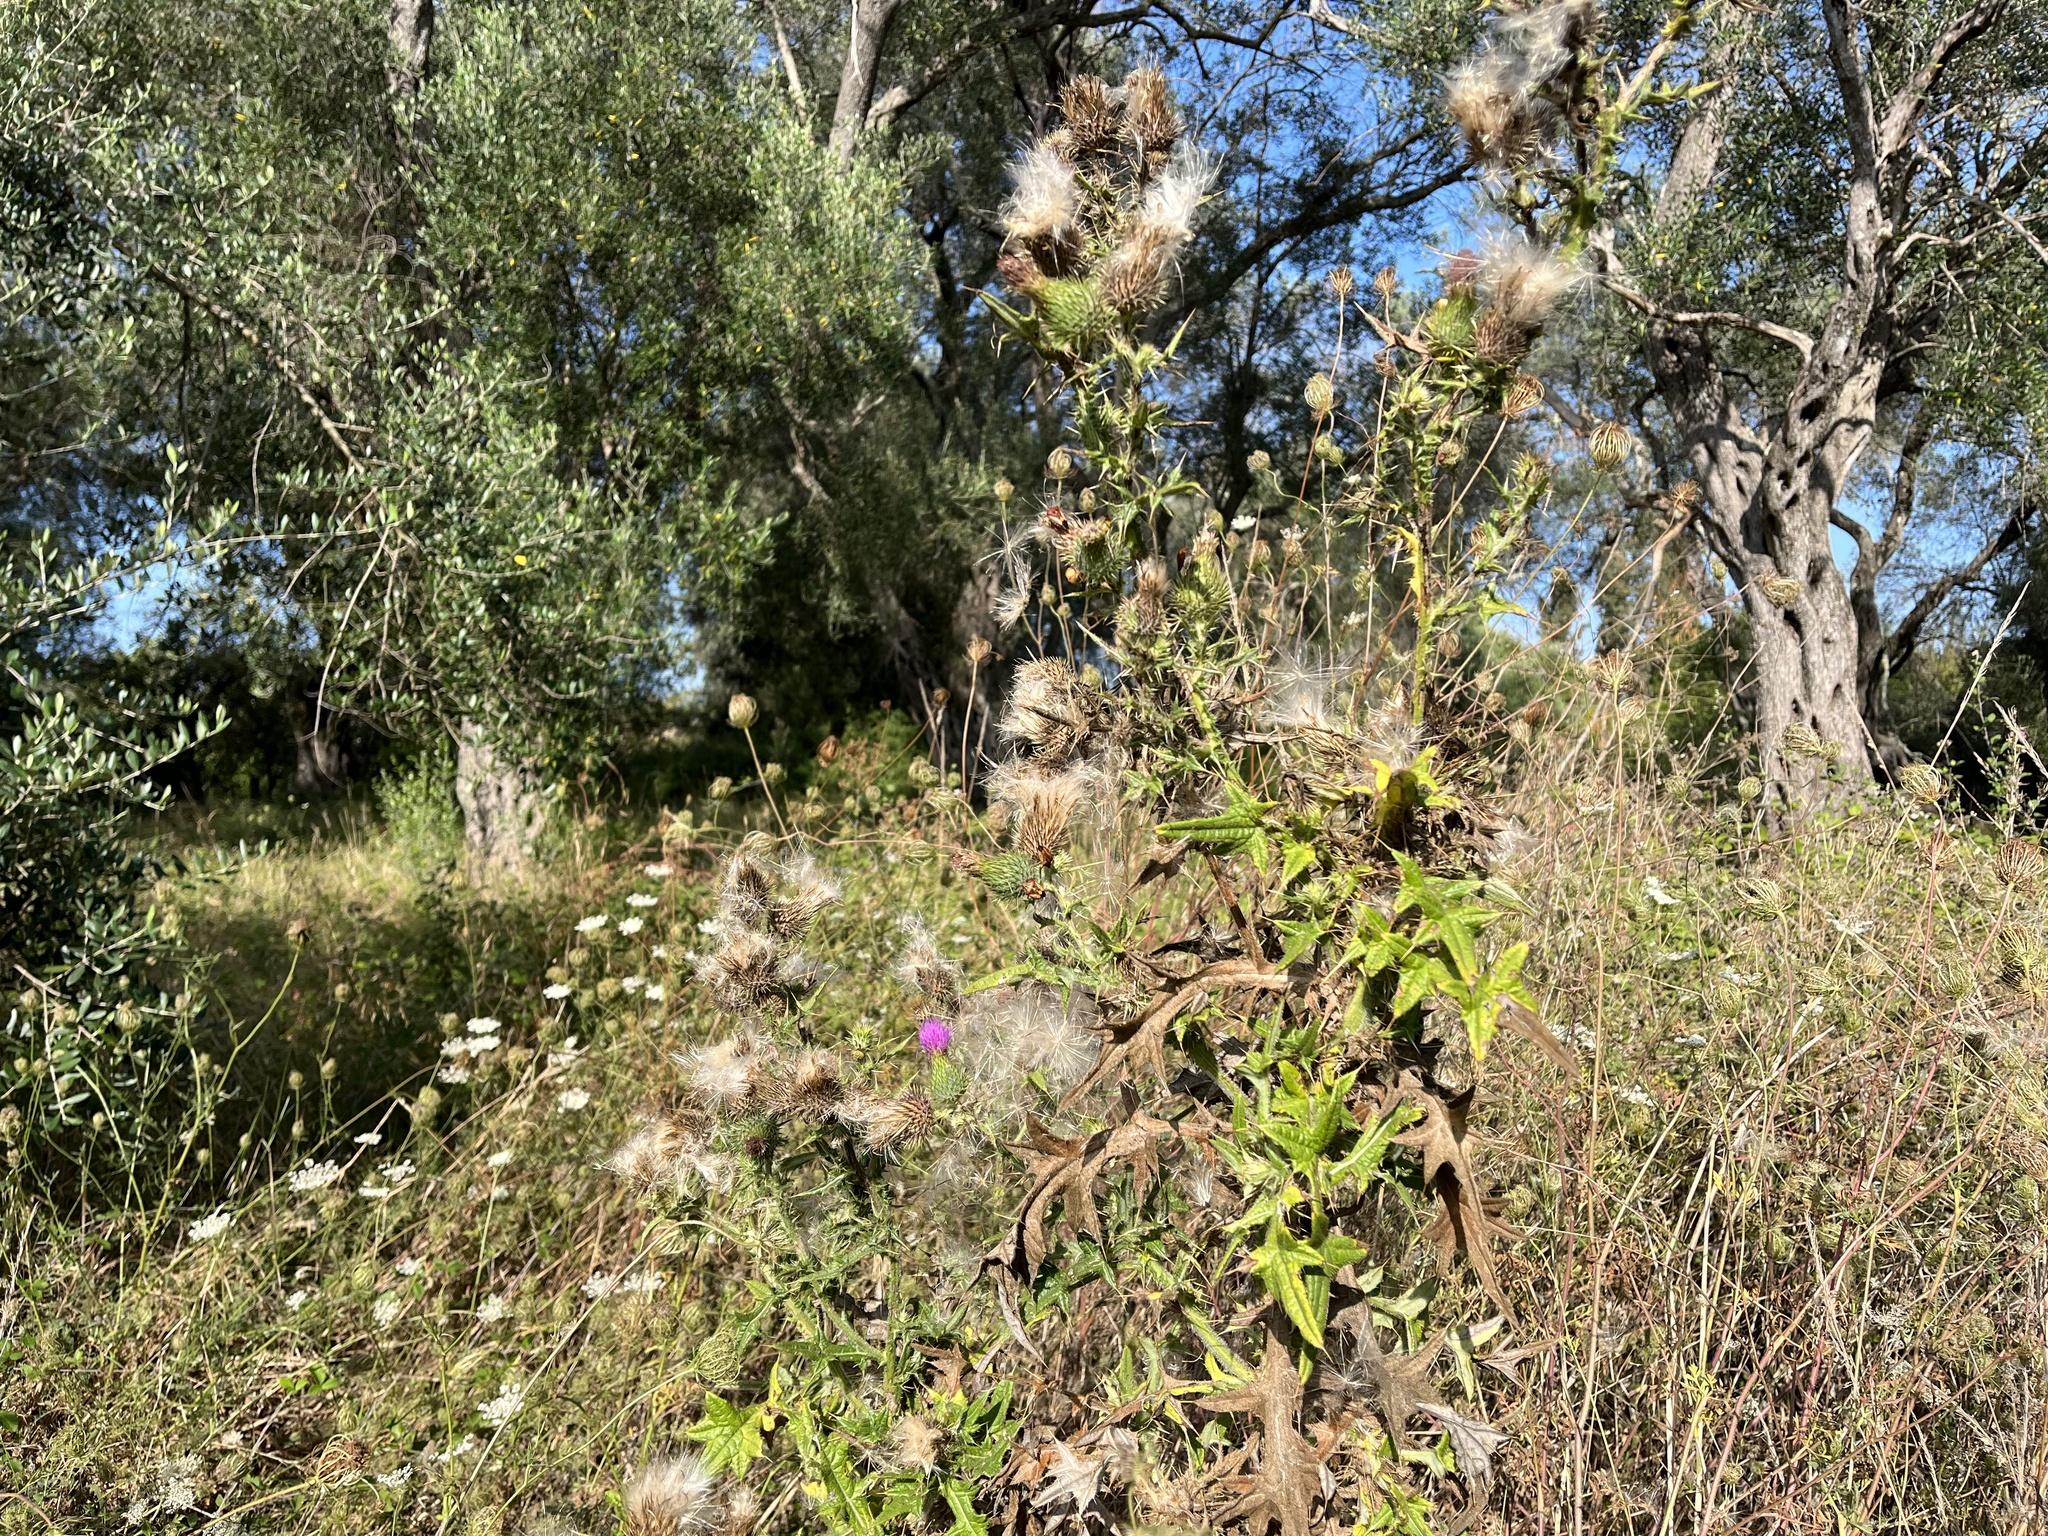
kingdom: Plantae
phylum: Tracheophyta
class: Magnoliopsida
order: Asterales
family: Asteraceae
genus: Cirsium
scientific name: Cirsium vulgare
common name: Bull thistle
